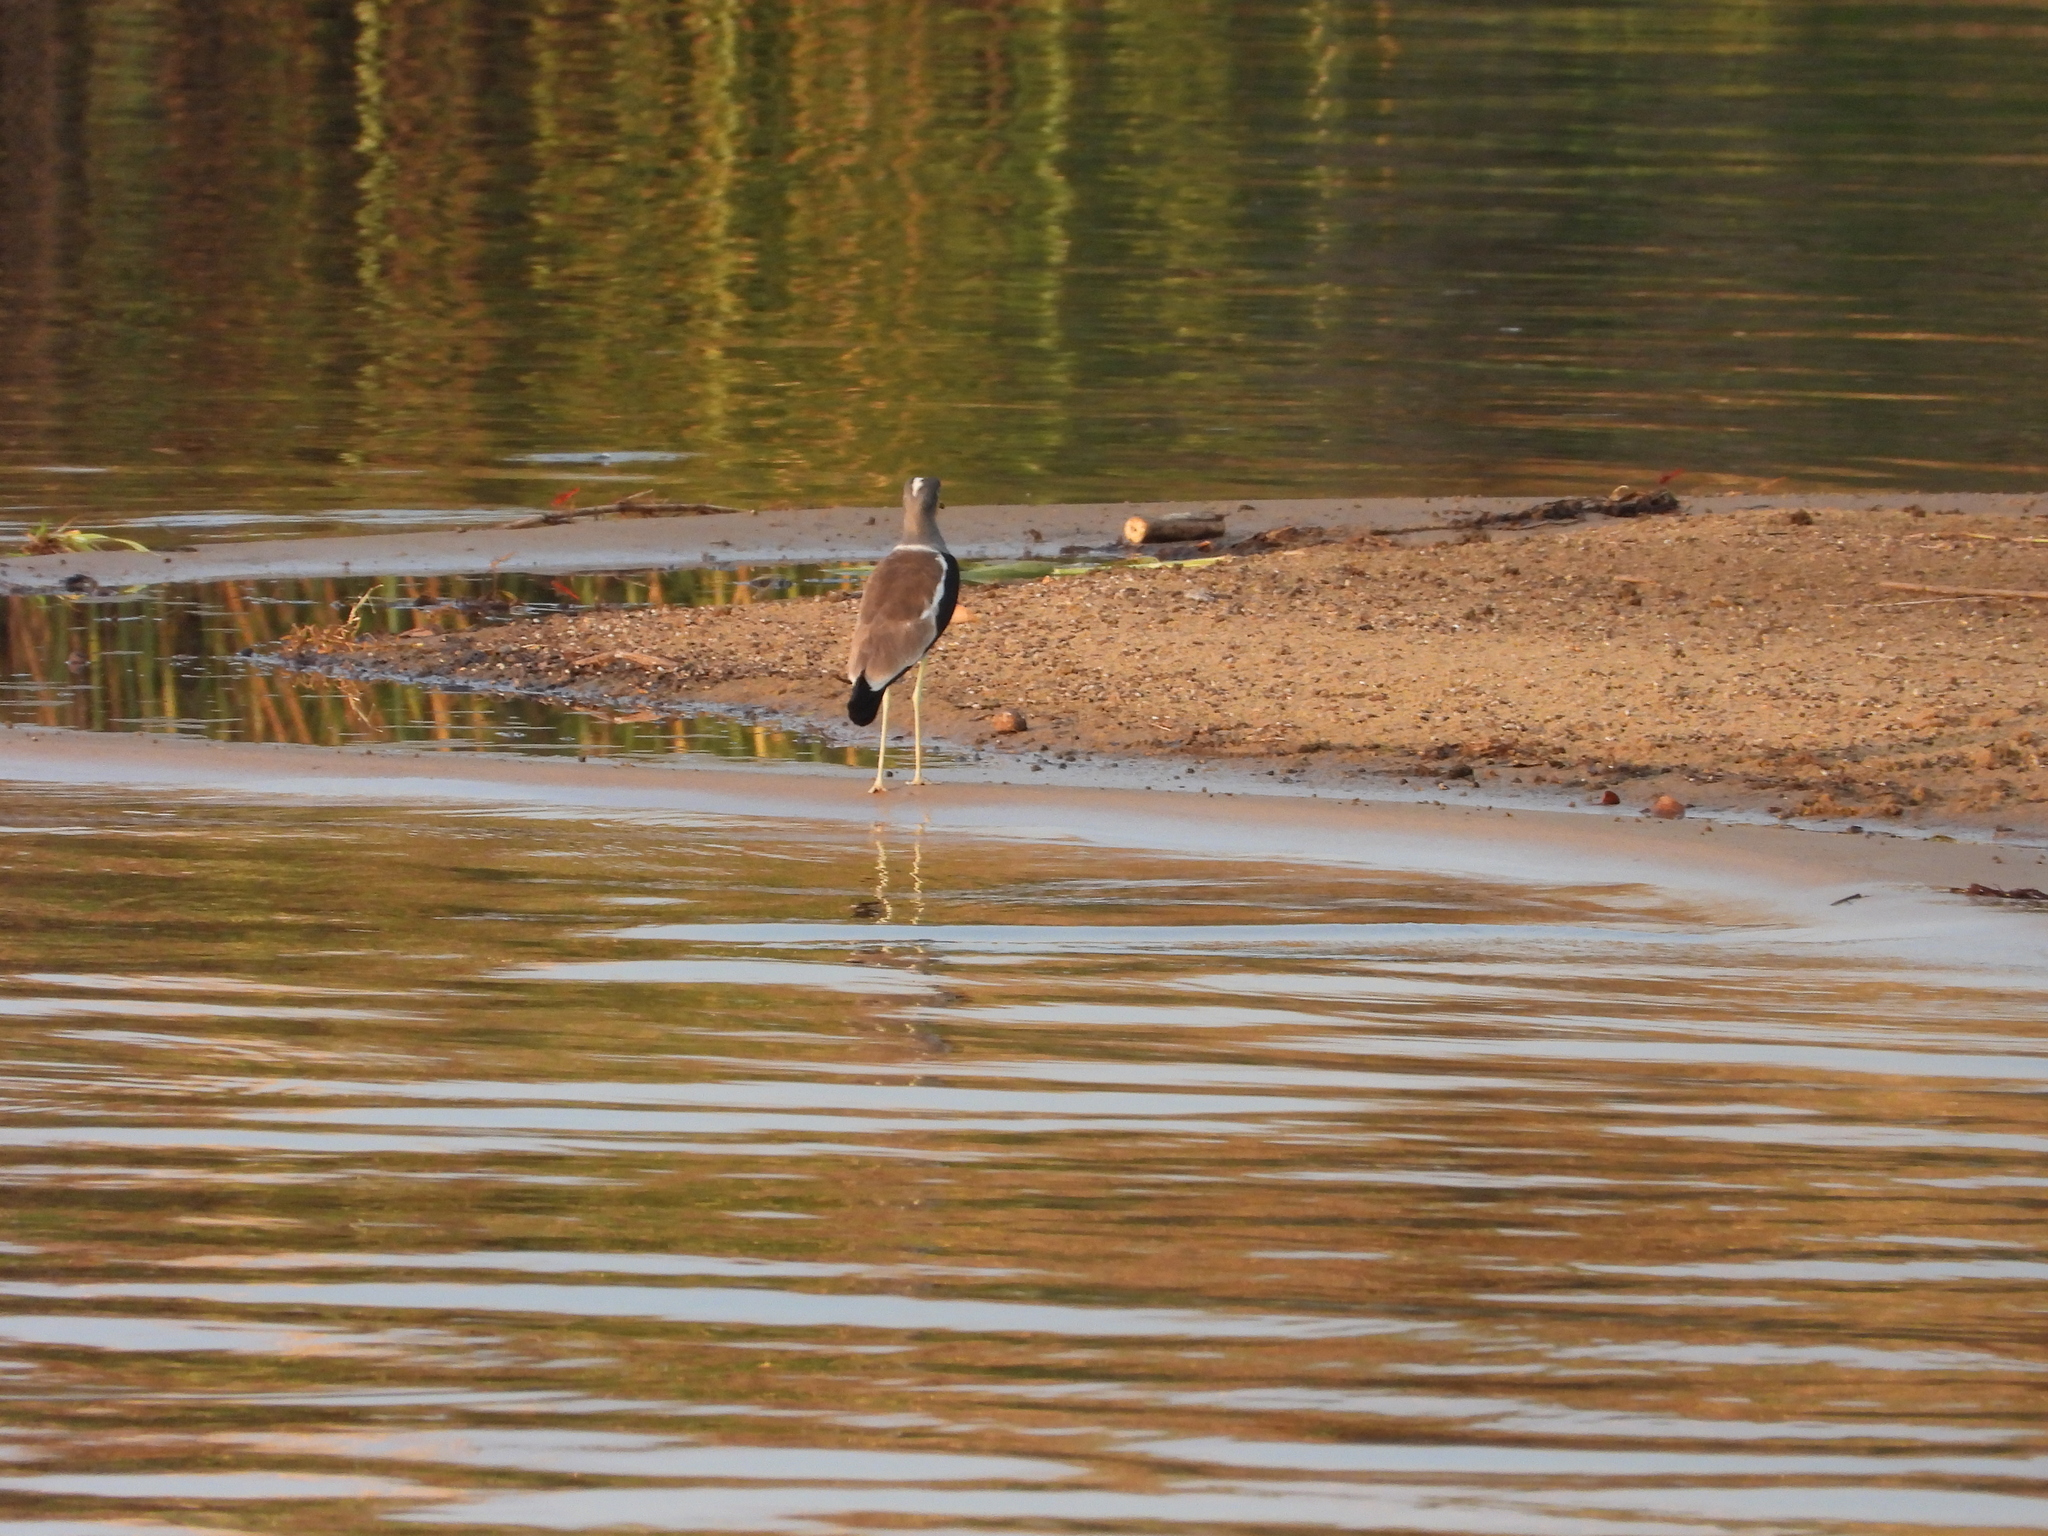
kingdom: Animalia
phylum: Chordata
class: Aves
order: Charadriiformes
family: Charadriidae
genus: Vanellus
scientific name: Vanellus albiceps
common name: White-crowned lapwing
